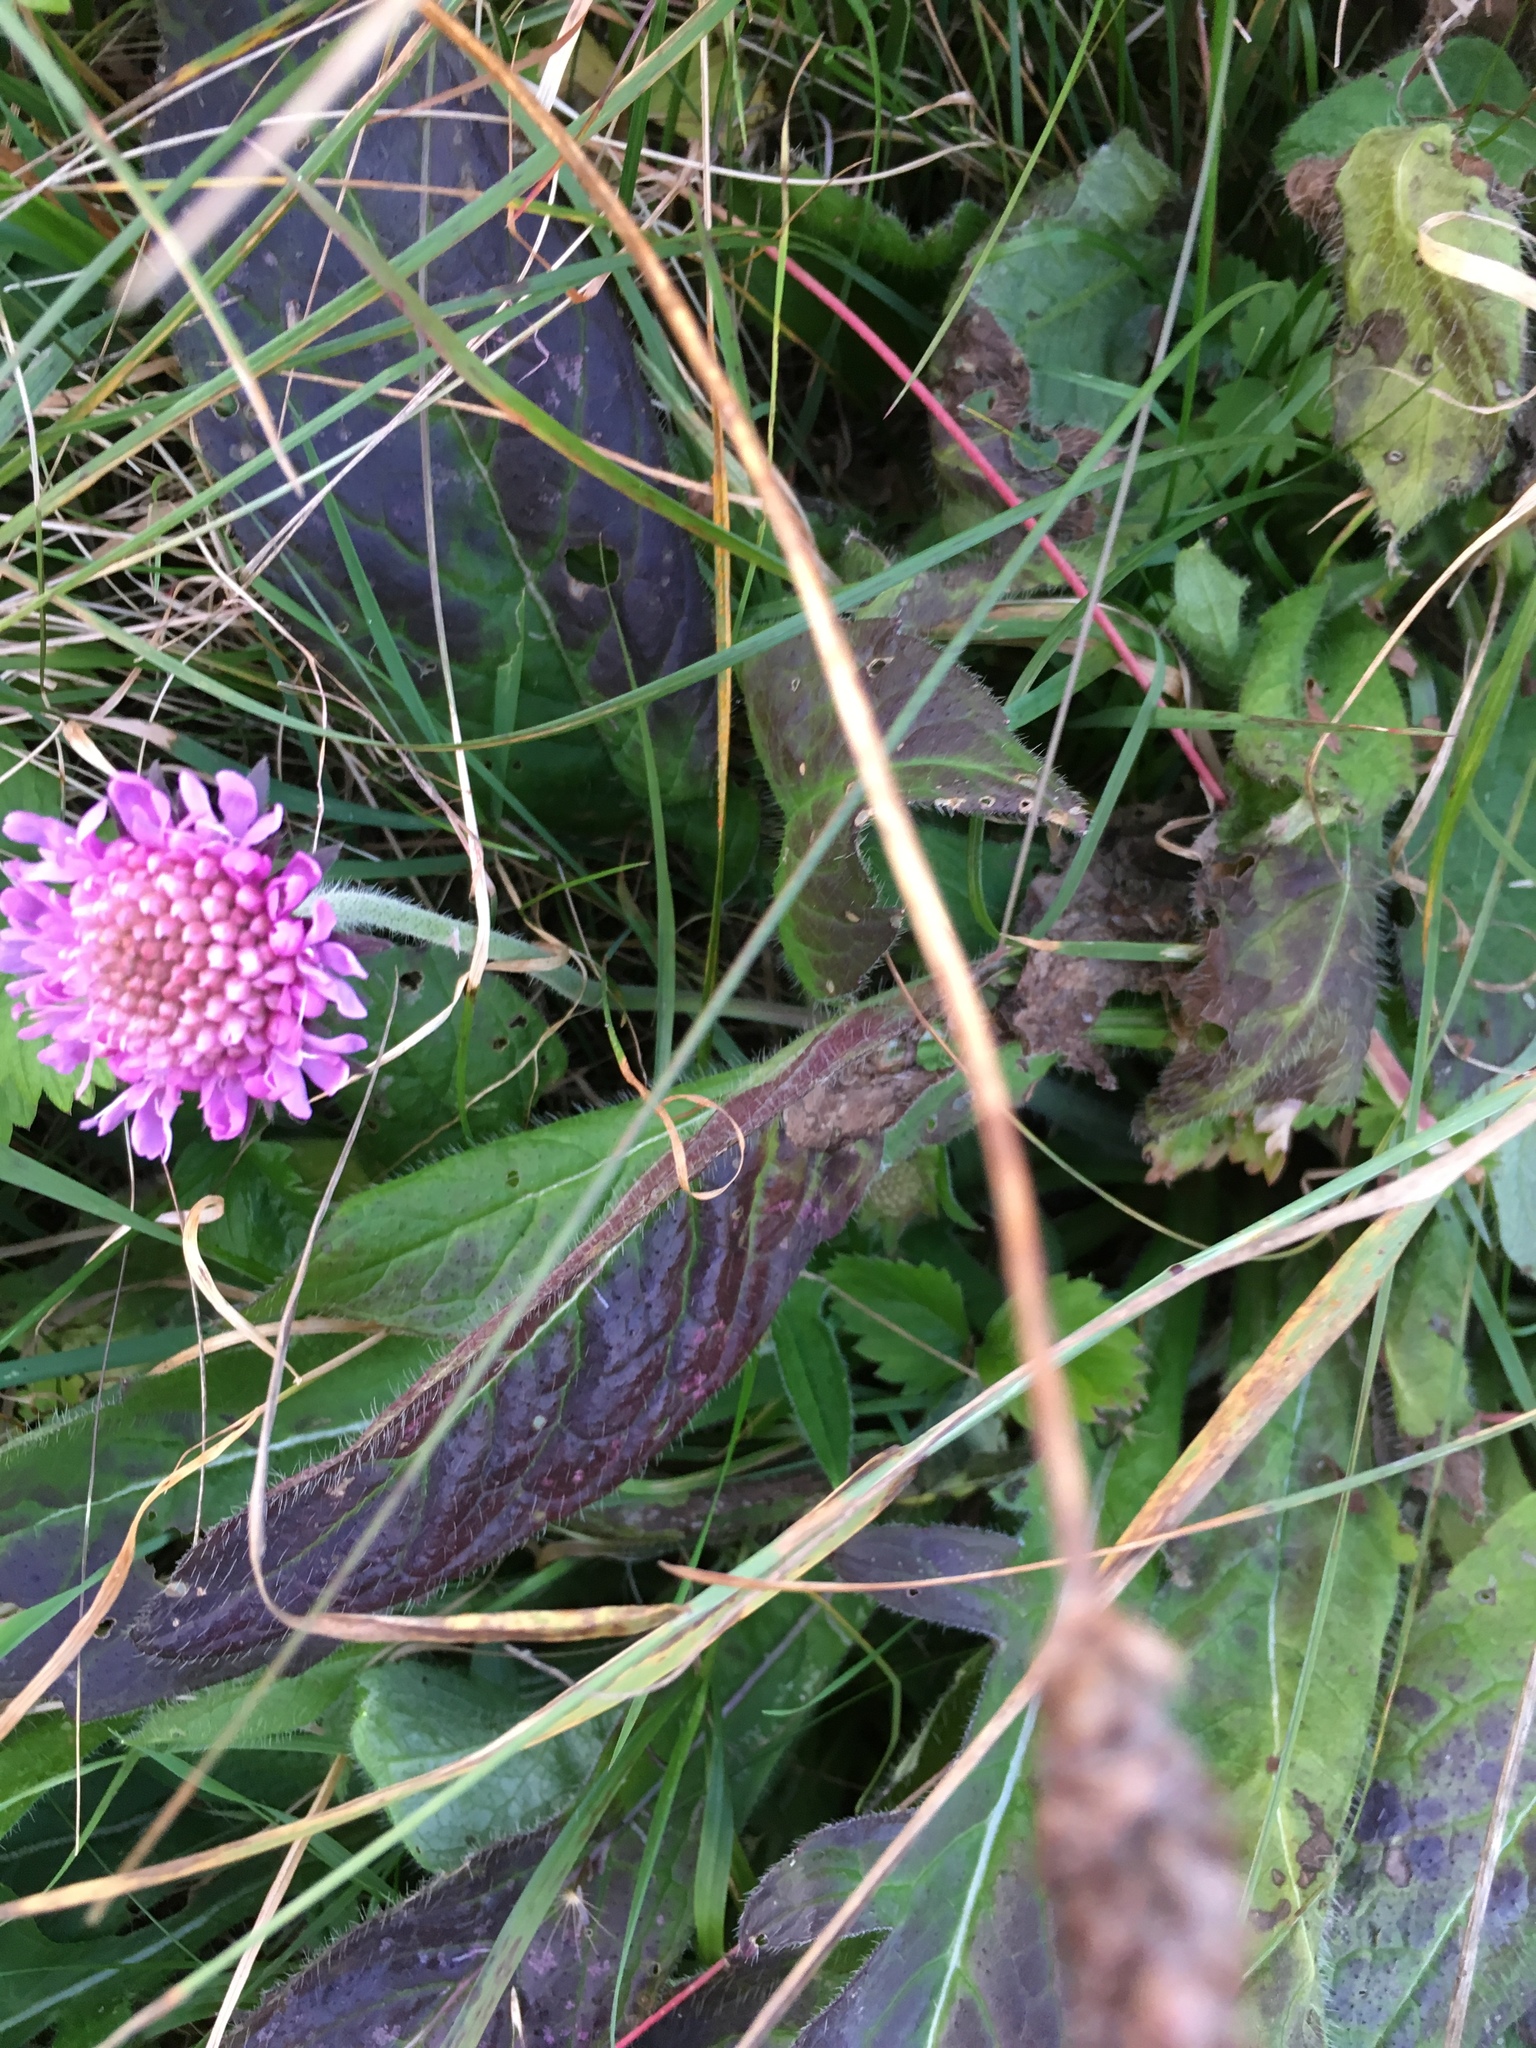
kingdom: Plantae
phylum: Tracheophyta
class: Magnoliopsida
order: Dipsacales
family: Caprifoliaceae
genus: Knautia
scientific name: Knautia arvensis
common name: Field scabiosa
